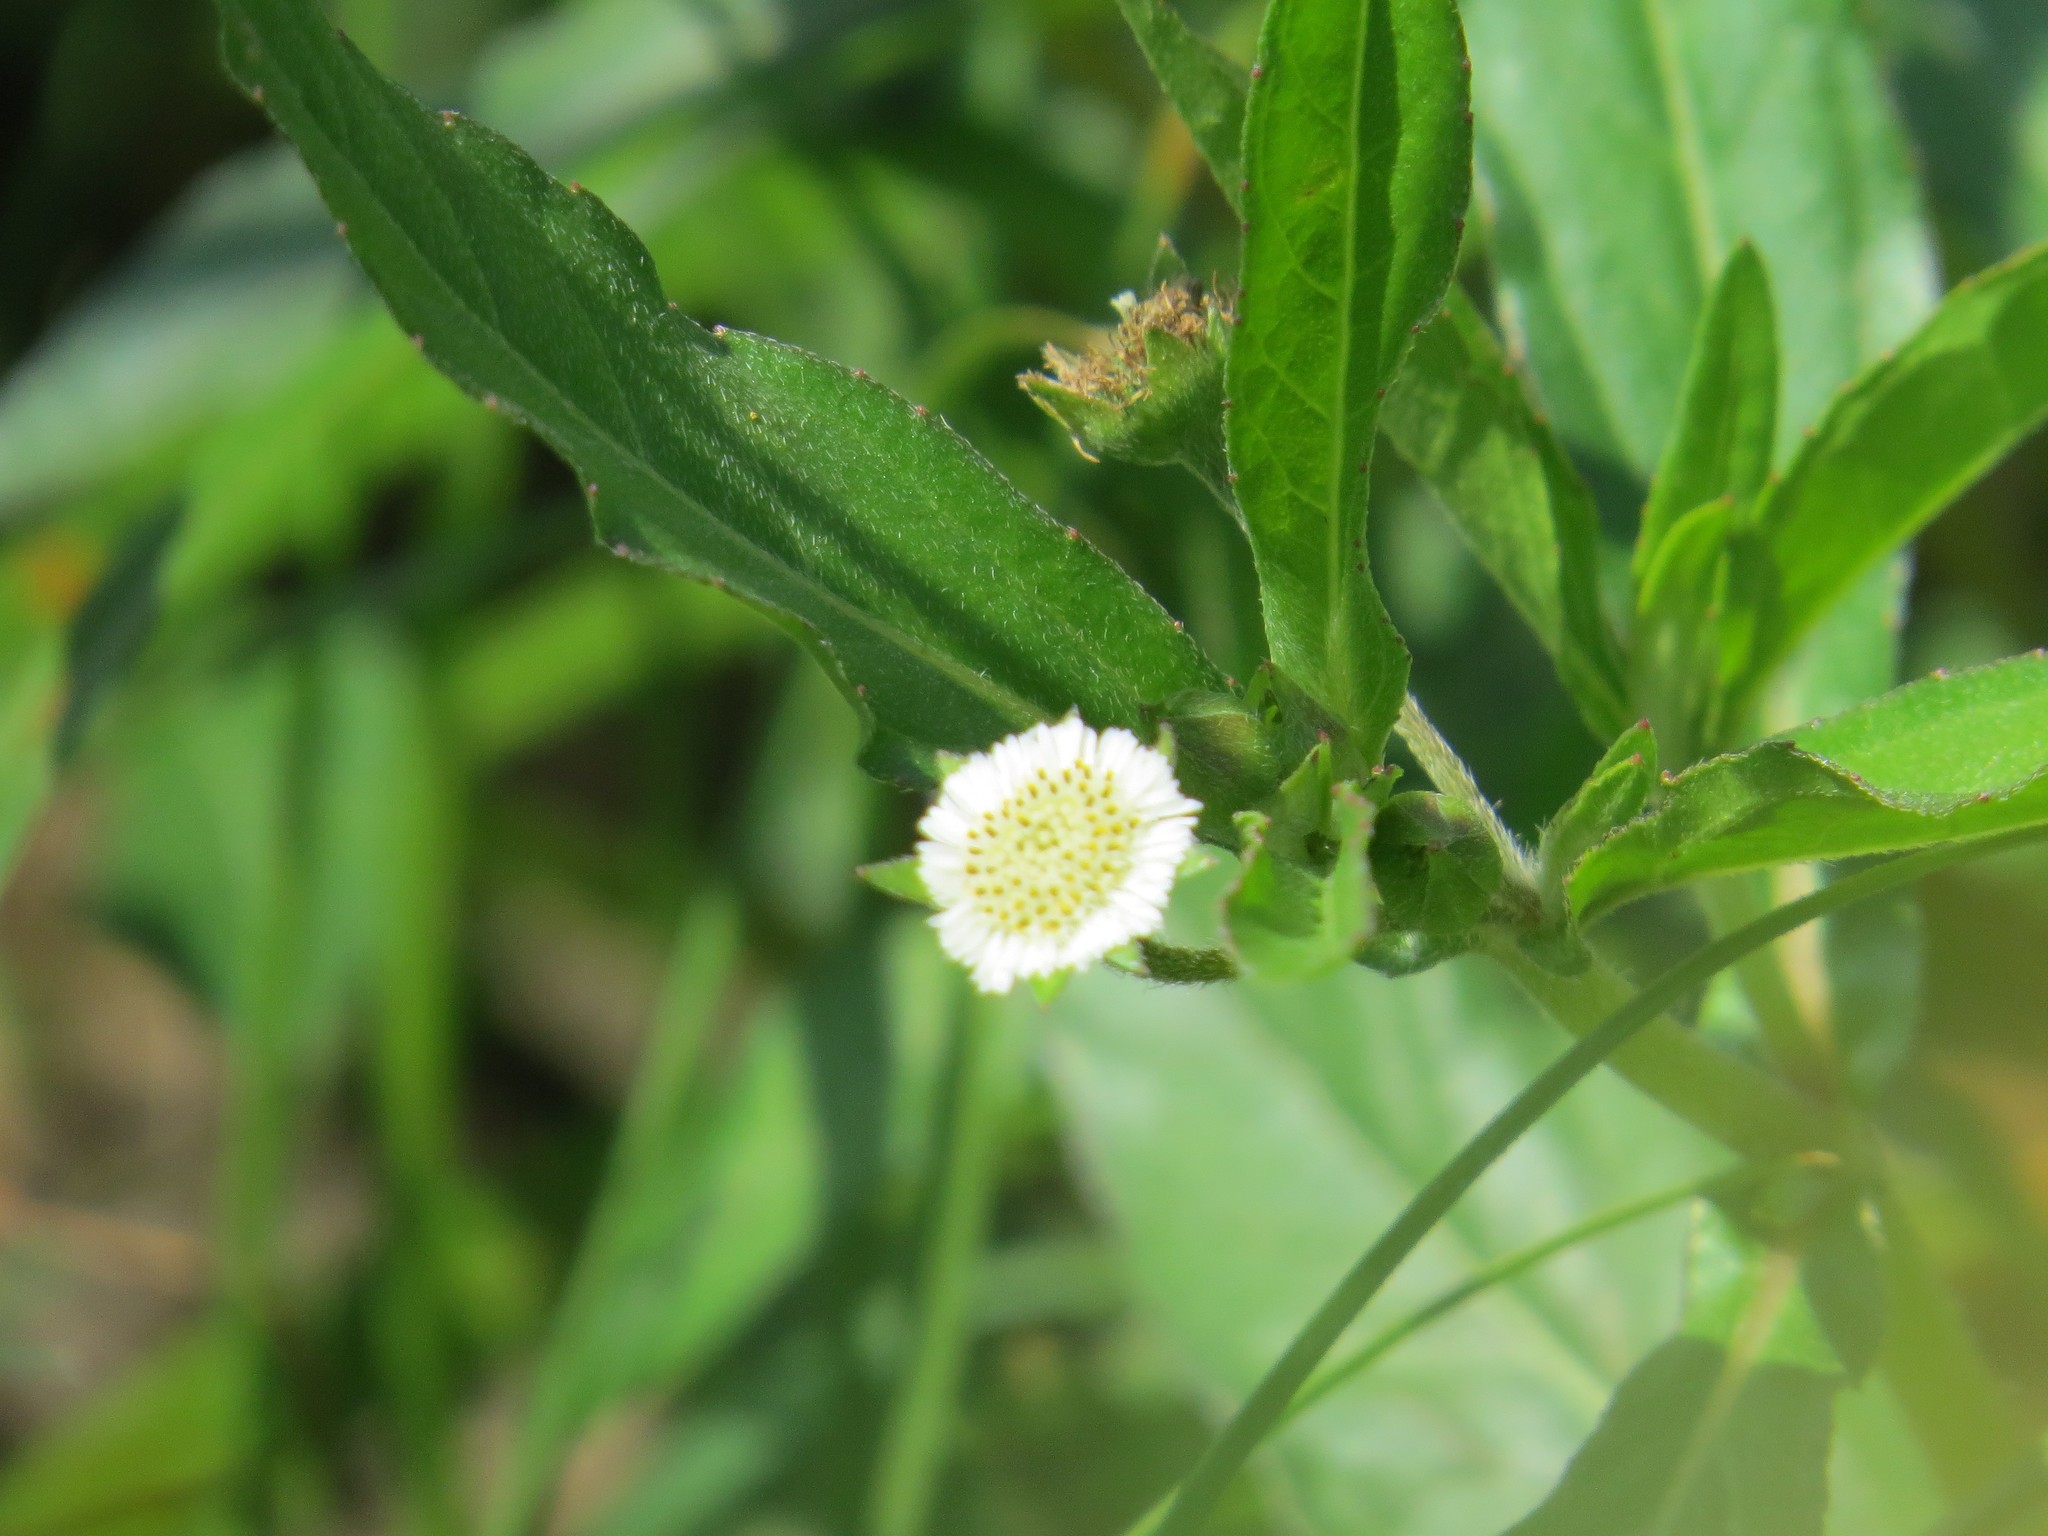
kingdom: Plantae
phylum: Tracheophyta
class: Magnoliopsida
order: Asterales
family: Asteraceae
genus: Eclipta
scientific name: Eclipta prostrata
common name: False daisy
